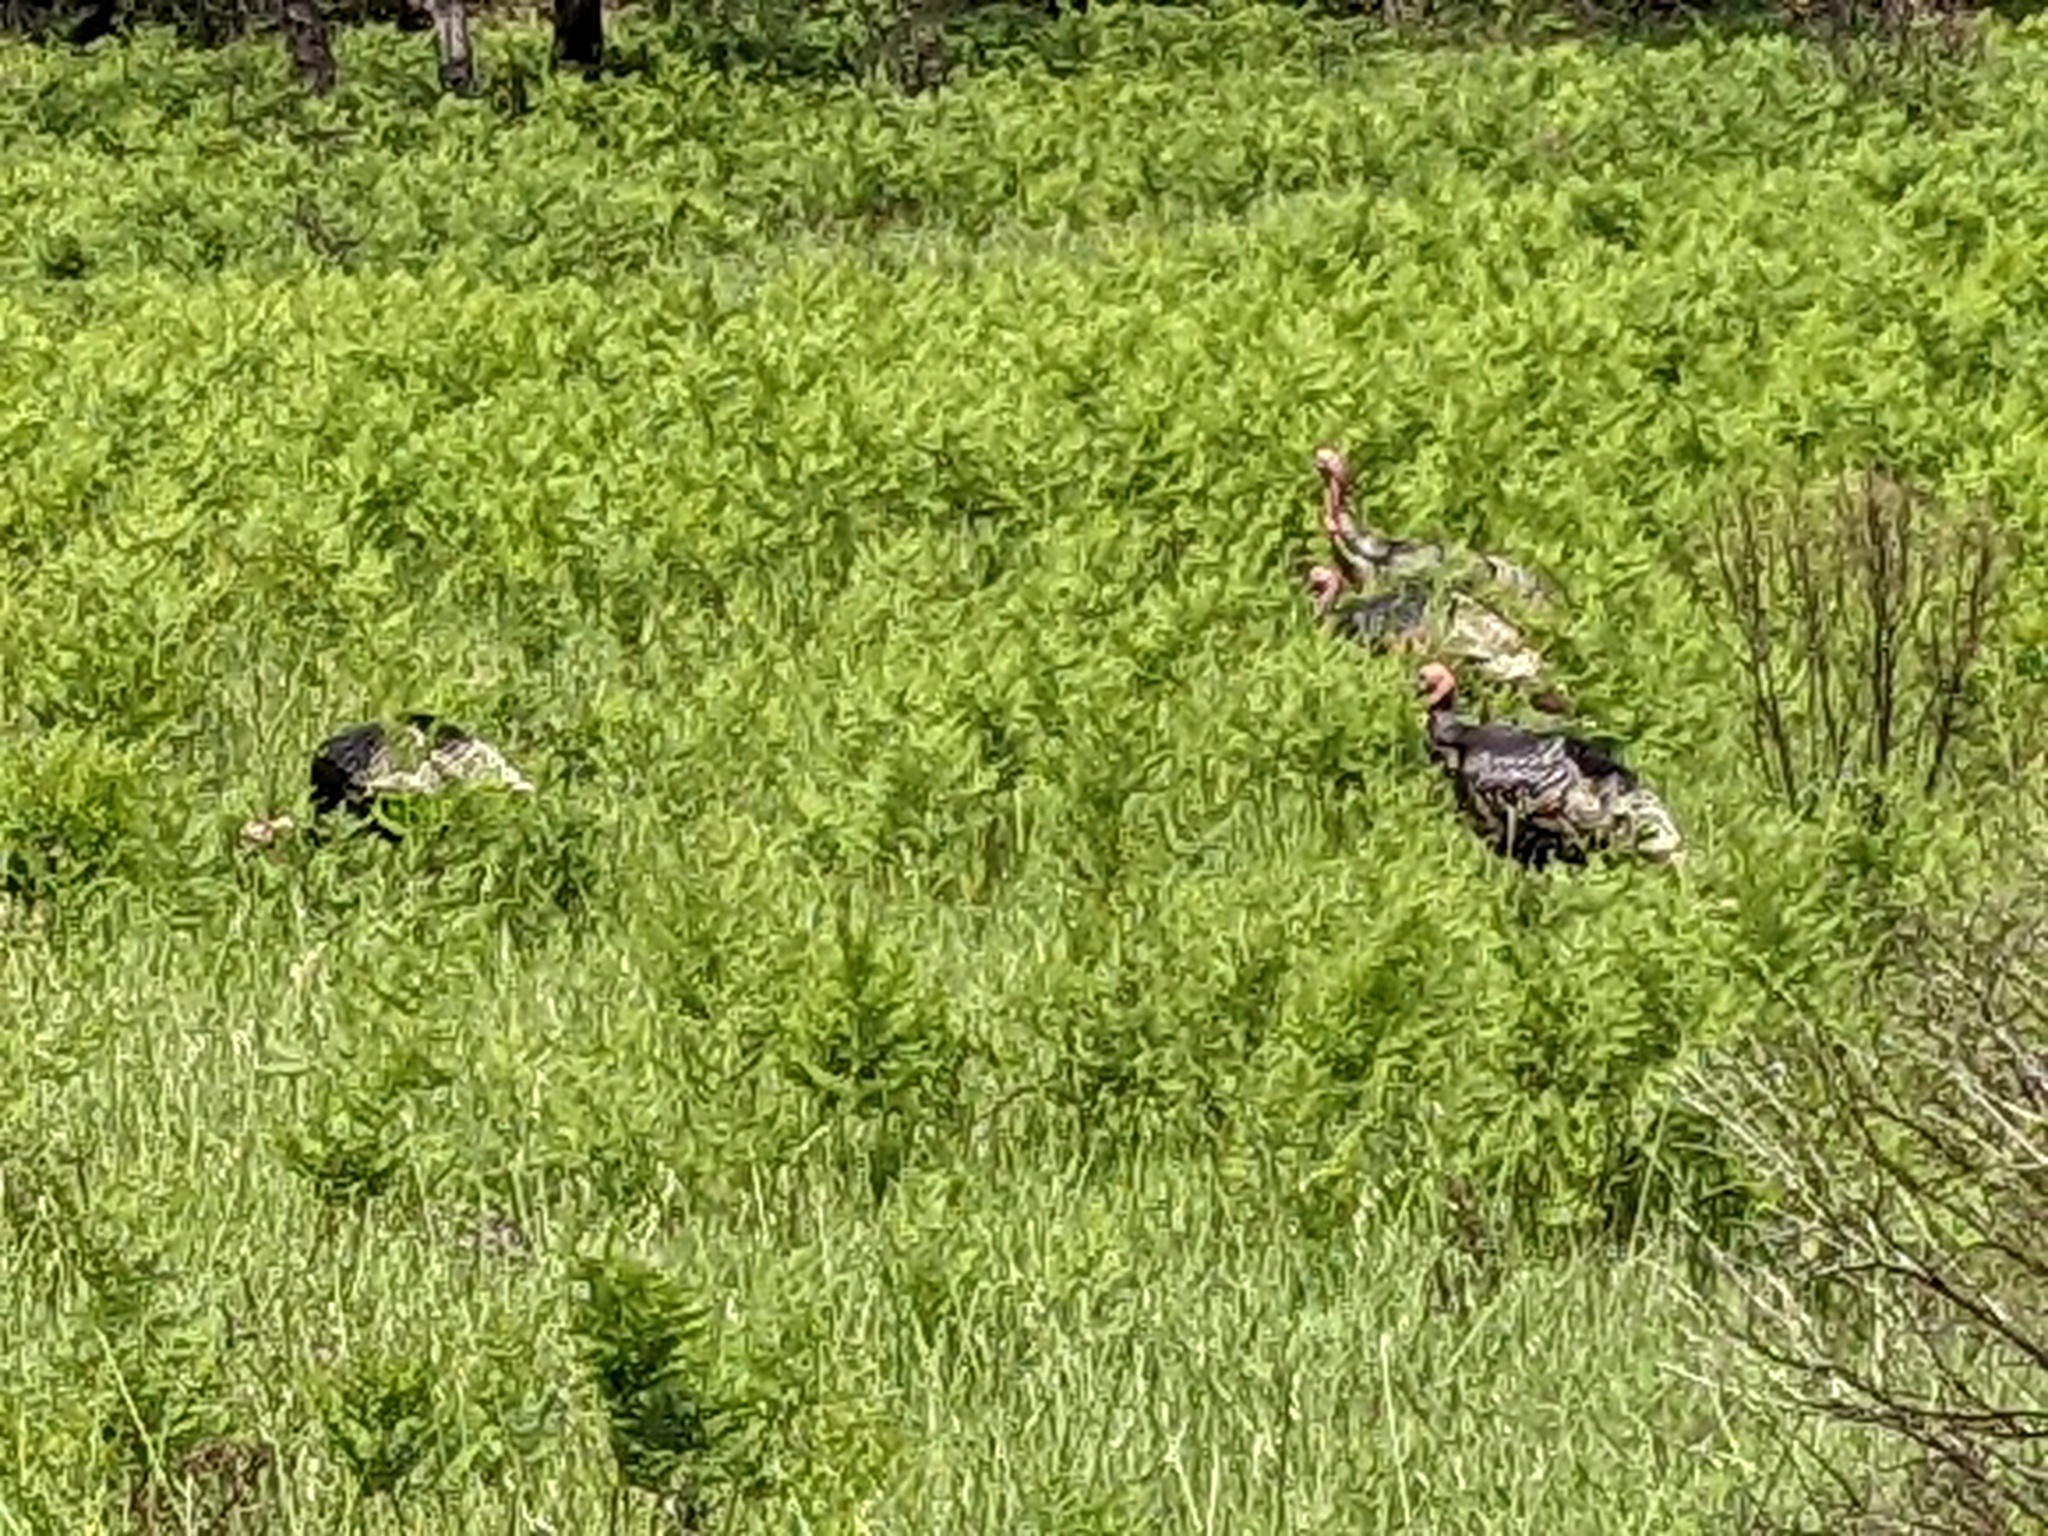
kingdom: Animalia
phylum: Chordata
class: Aves
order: Galliformes
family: Phasianidae
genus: Meleagris
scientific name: Meleagris gallopavo
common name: Wild turkey
